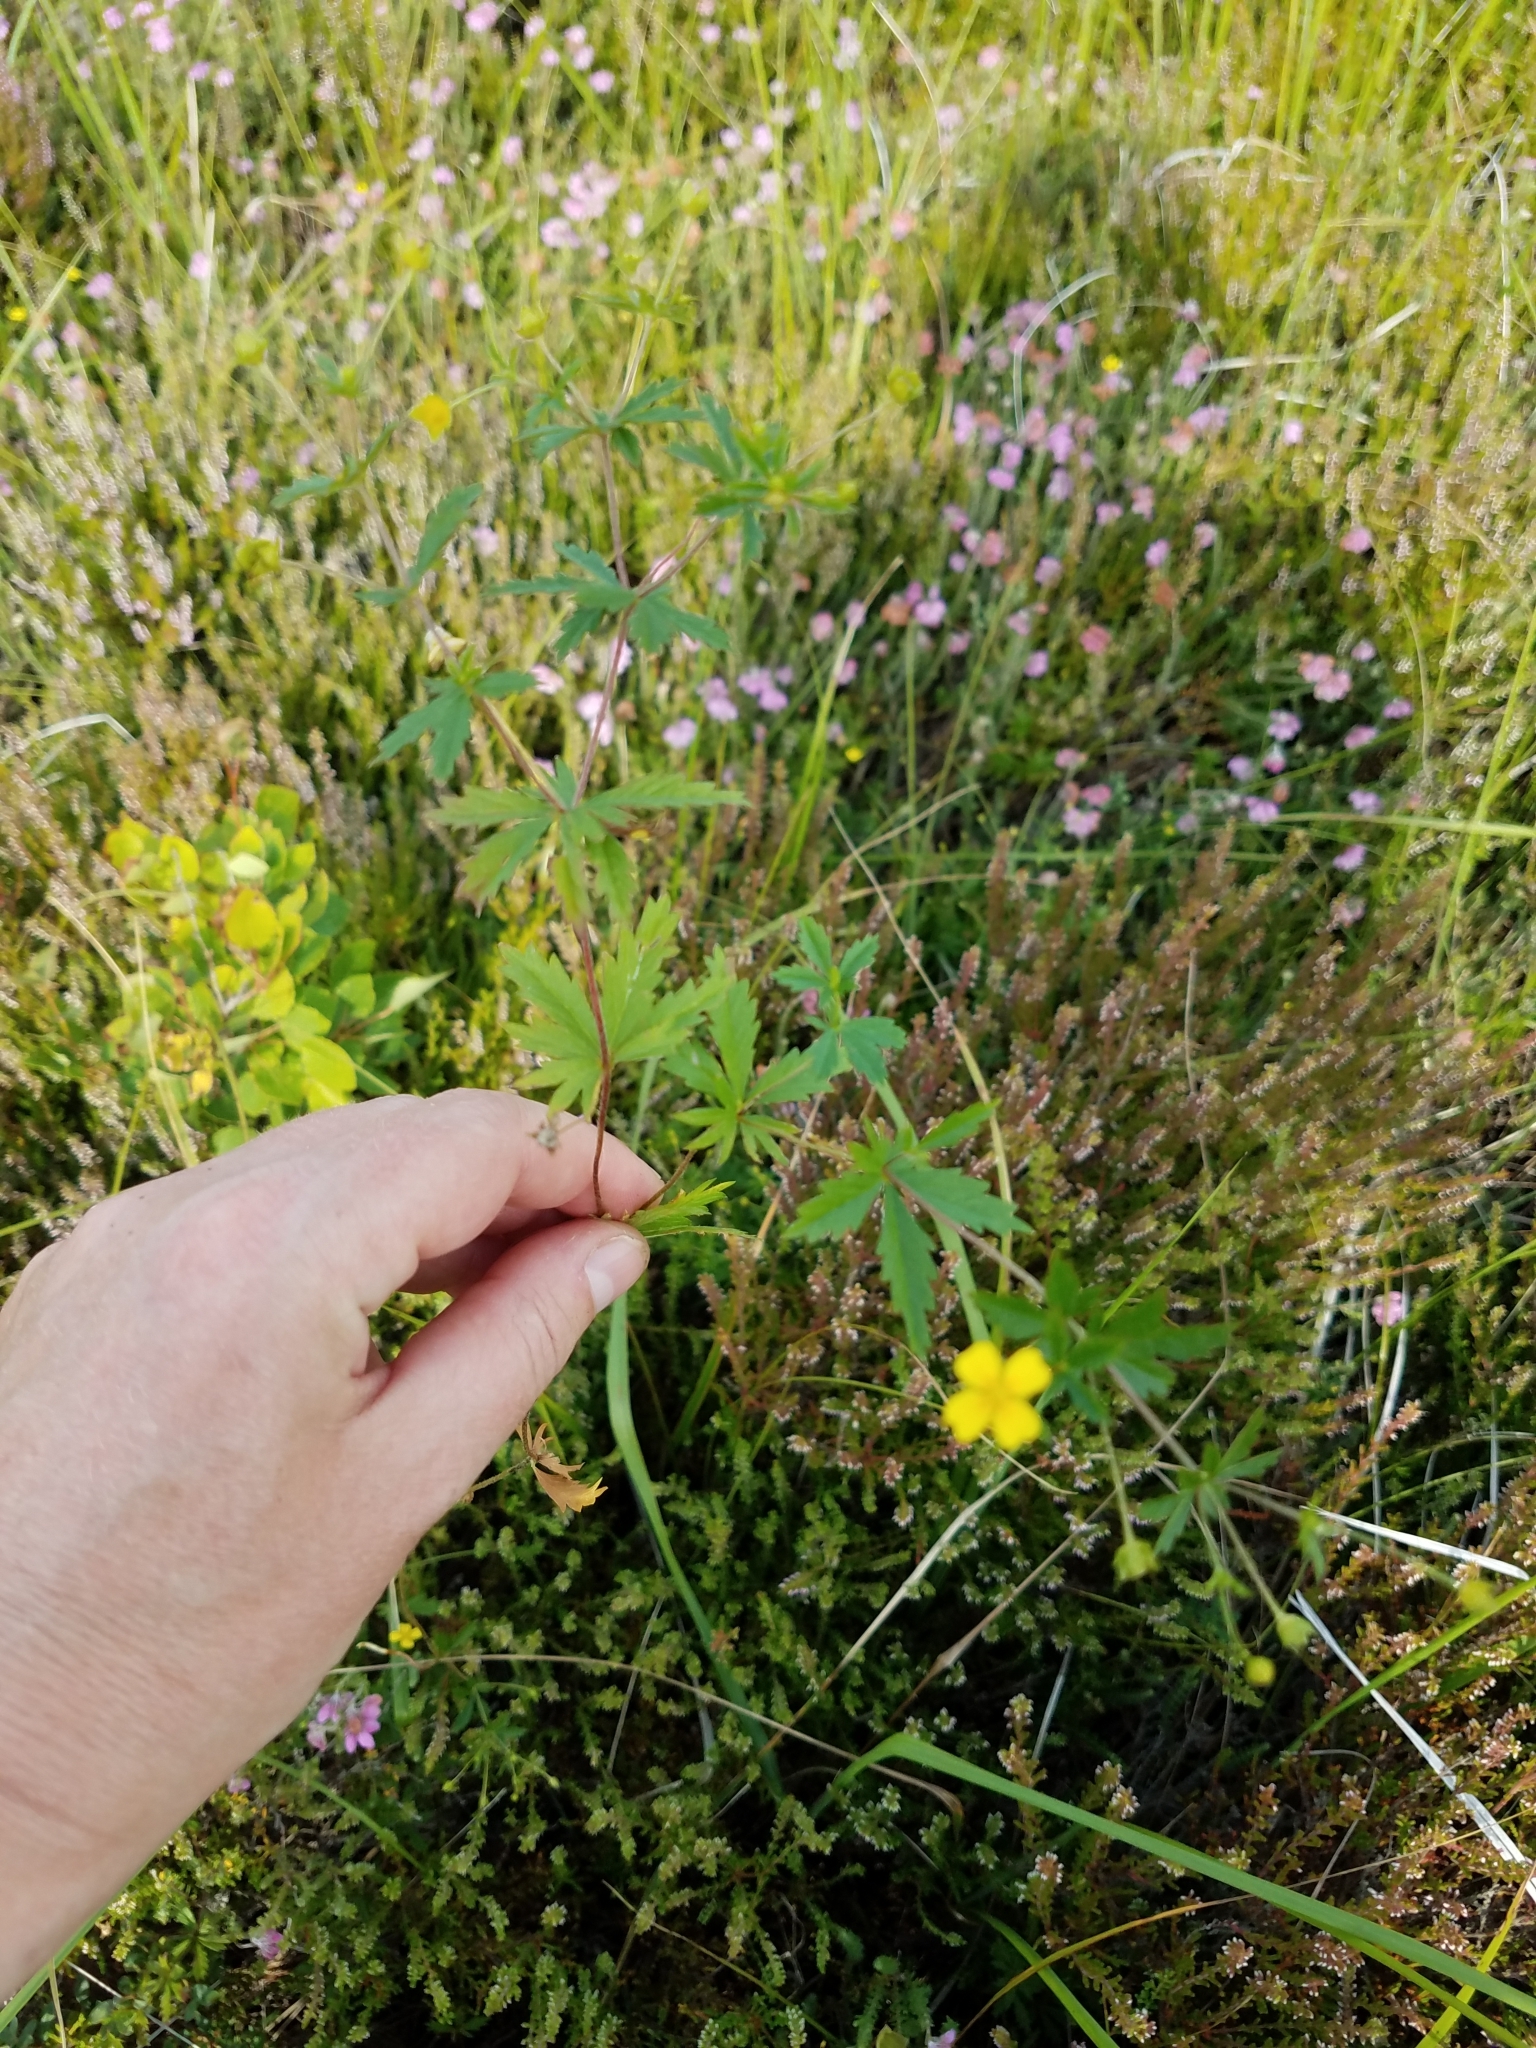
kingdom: Plantae
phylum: Tracheophyta
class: Magnoliopsida
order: Rosales
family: Rosaceae
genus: Potentilla
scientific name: Potentilla erecta
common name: Tormentil
